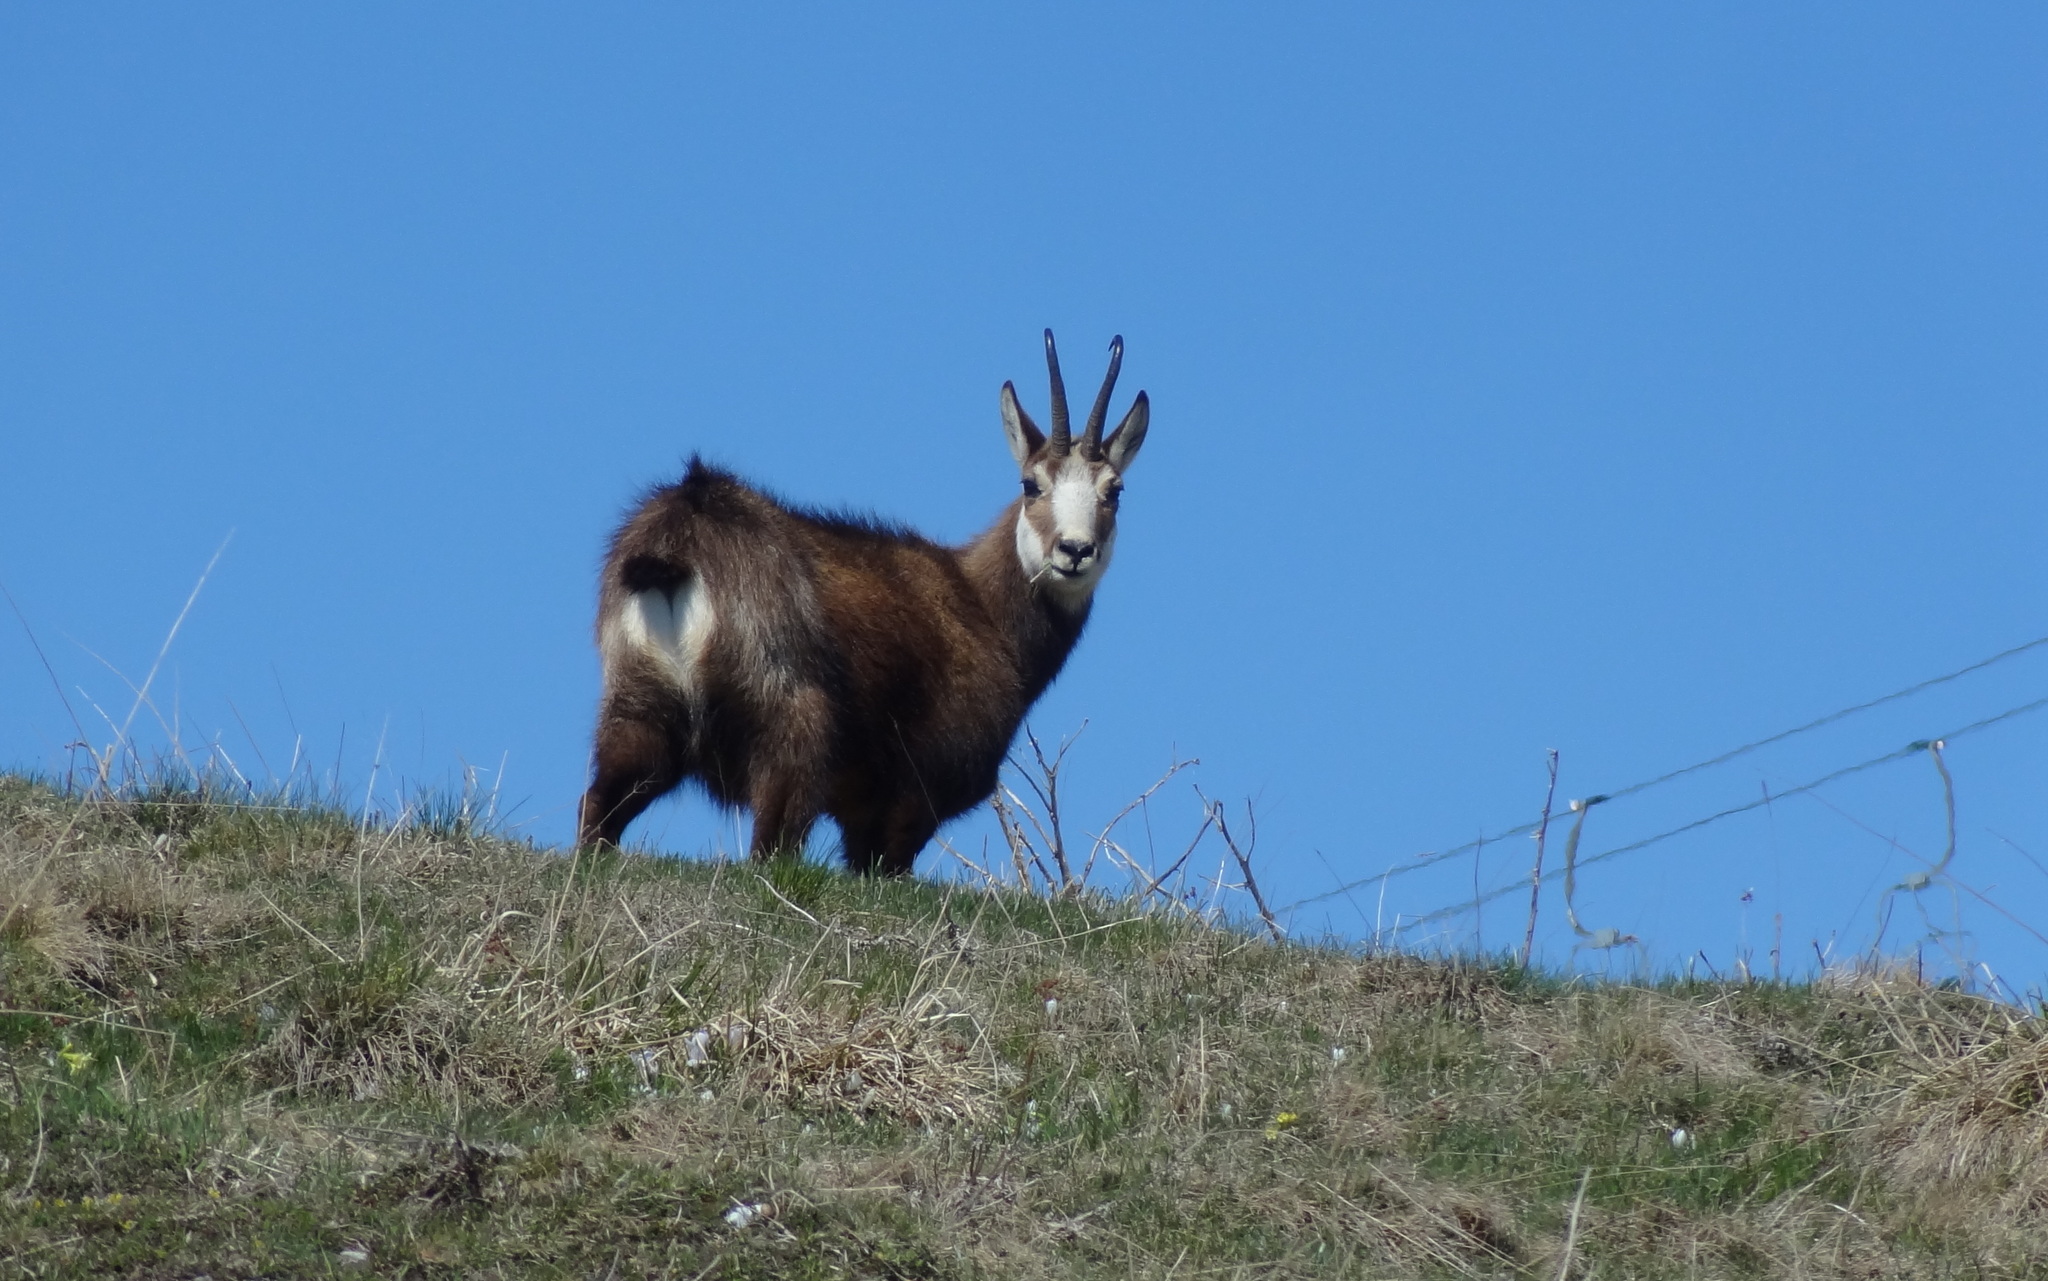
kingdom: Animalia
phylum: Chordata
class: Mammalia
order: Artiodactyla
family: Bovidae
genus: Rupicapra
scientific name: Rupicapra rupicapra
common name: Chamois
